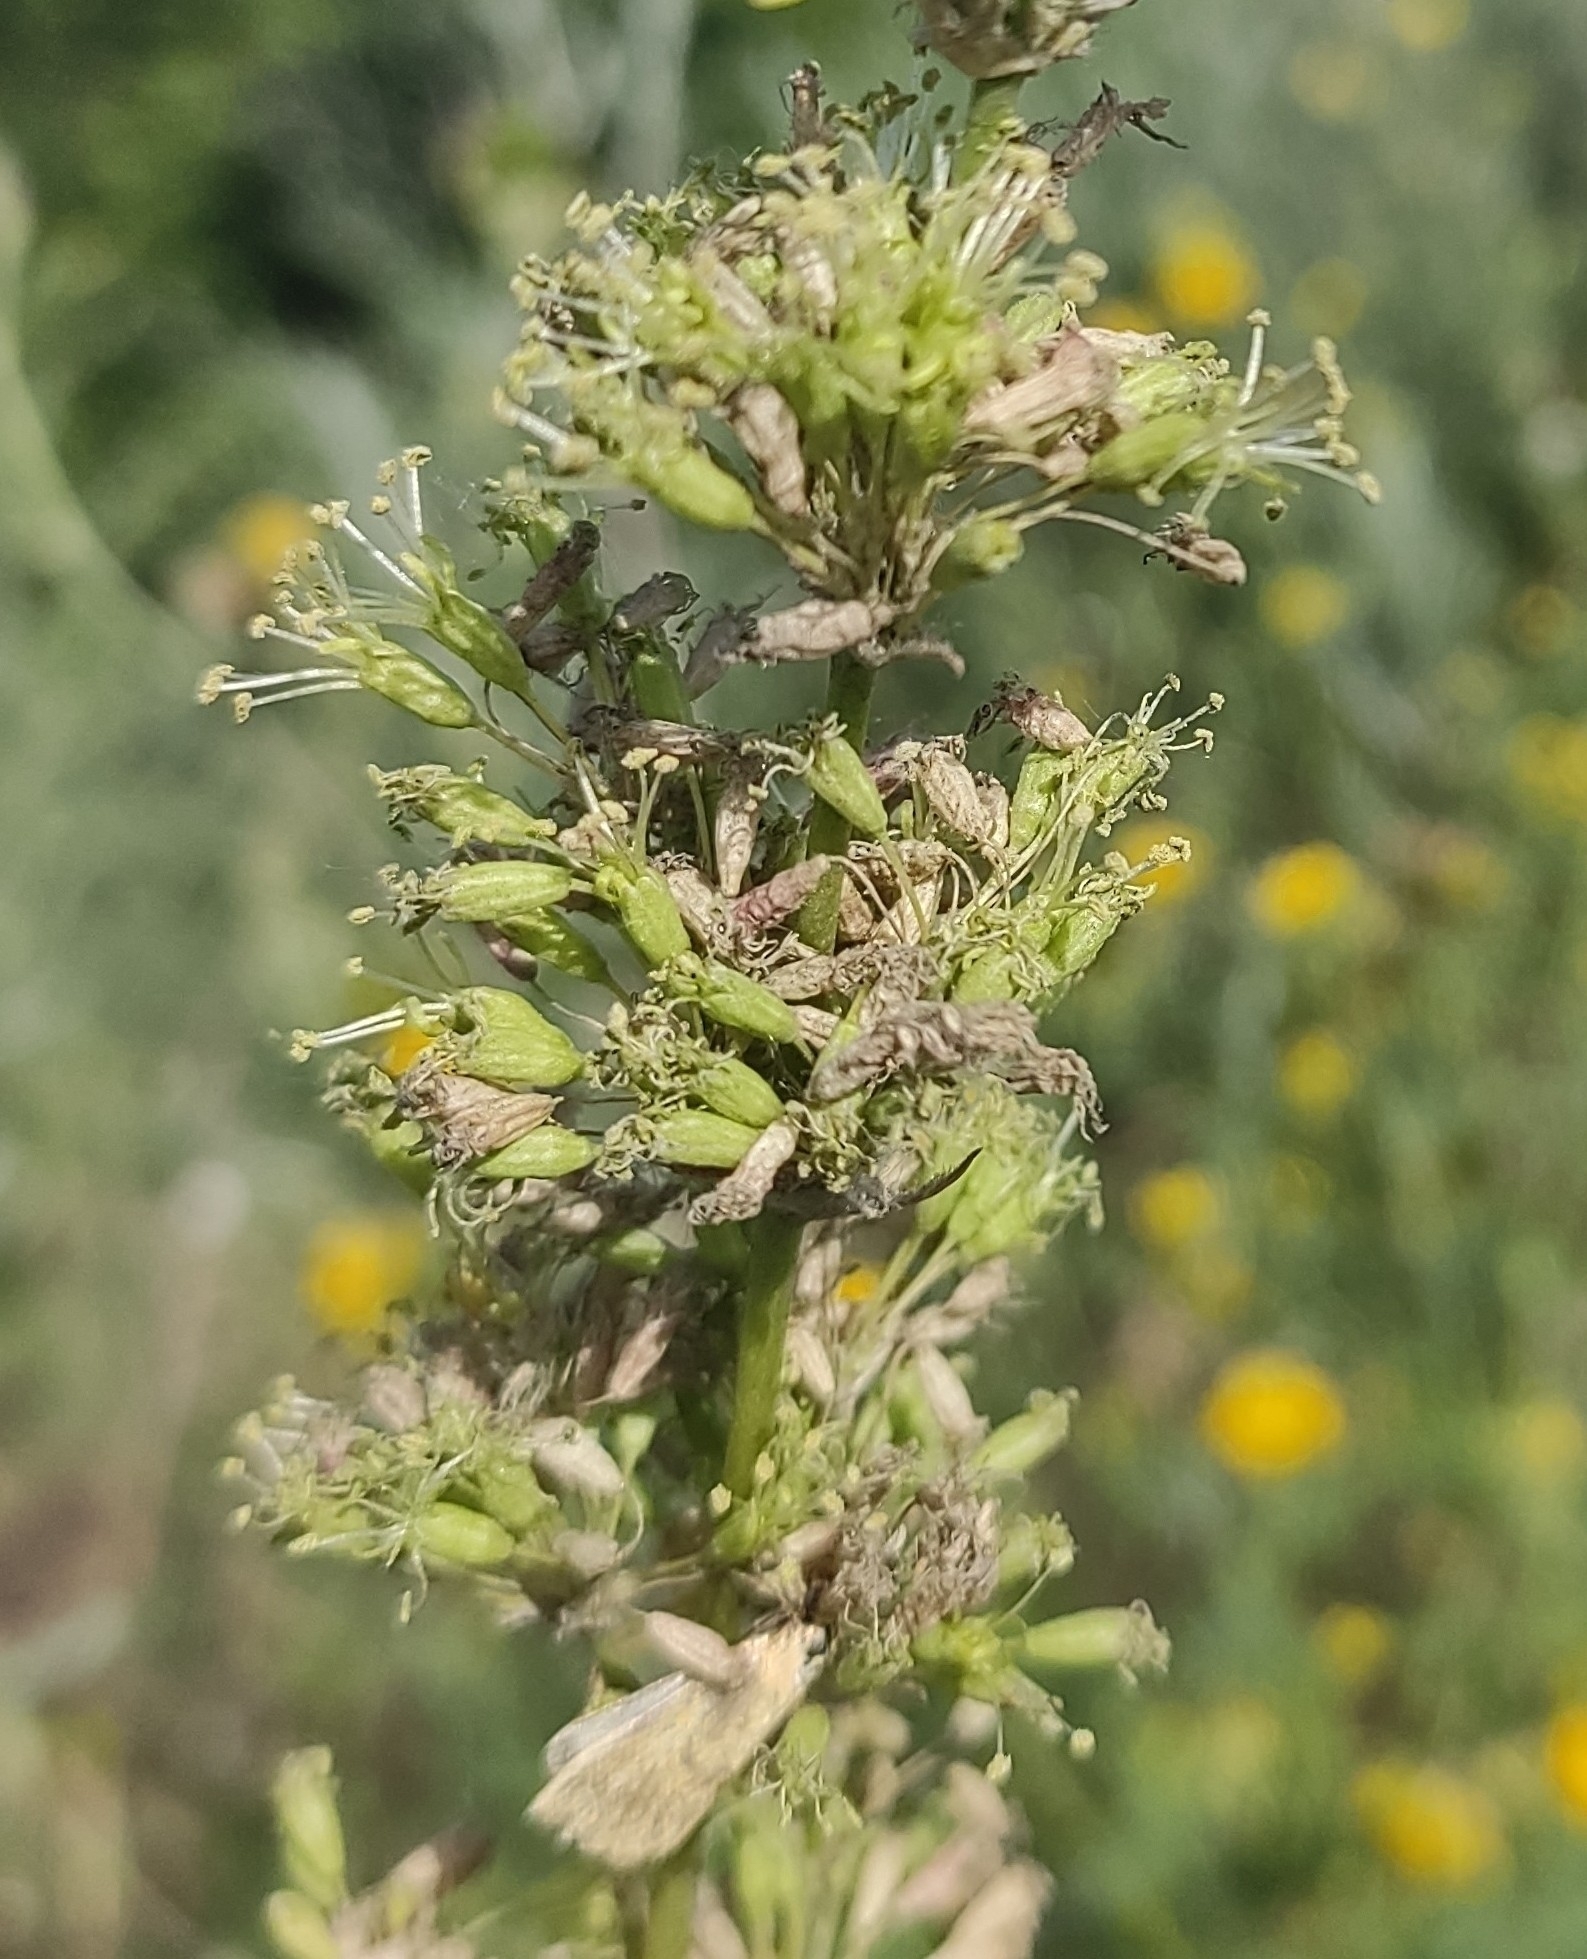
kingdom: Plantae
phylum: Tracheophyta
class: Magnoliopsida
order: Caryophyllales
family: Caryophyllaceae
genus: Silene
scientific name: Silene chersonensis
